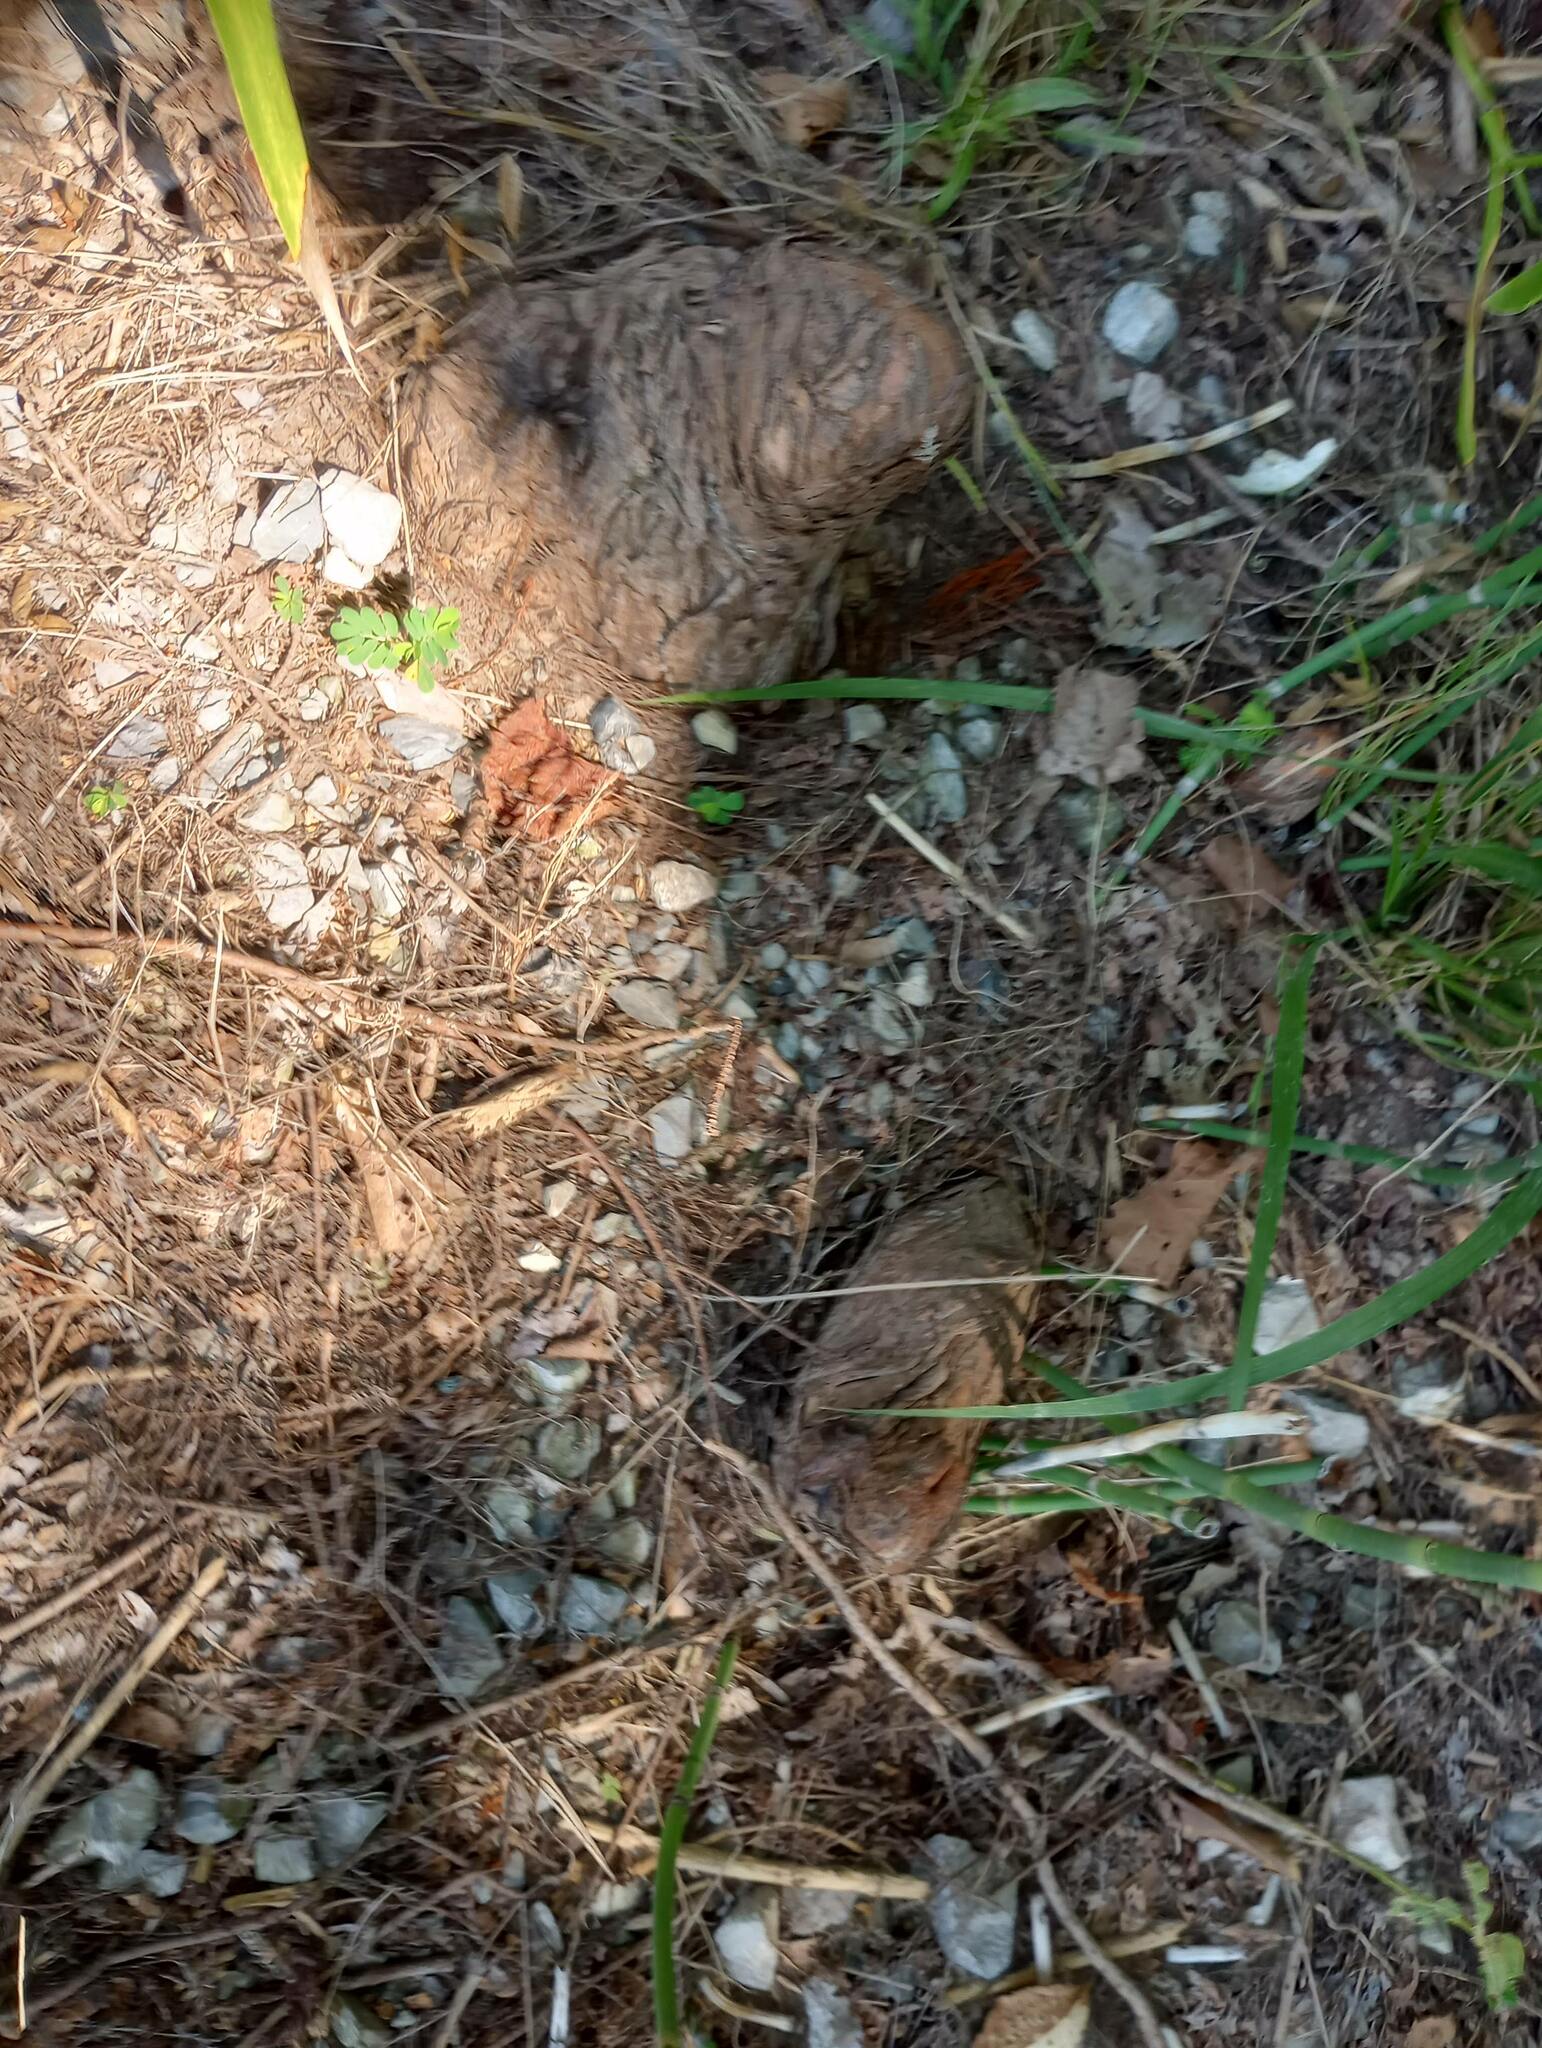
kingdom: Plantae
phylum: Tracheophyta
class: Pinopsida
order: Pinales
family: Cupressaceae
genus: Taxodium
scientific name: Taxodium distichum
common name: Bald cypress
